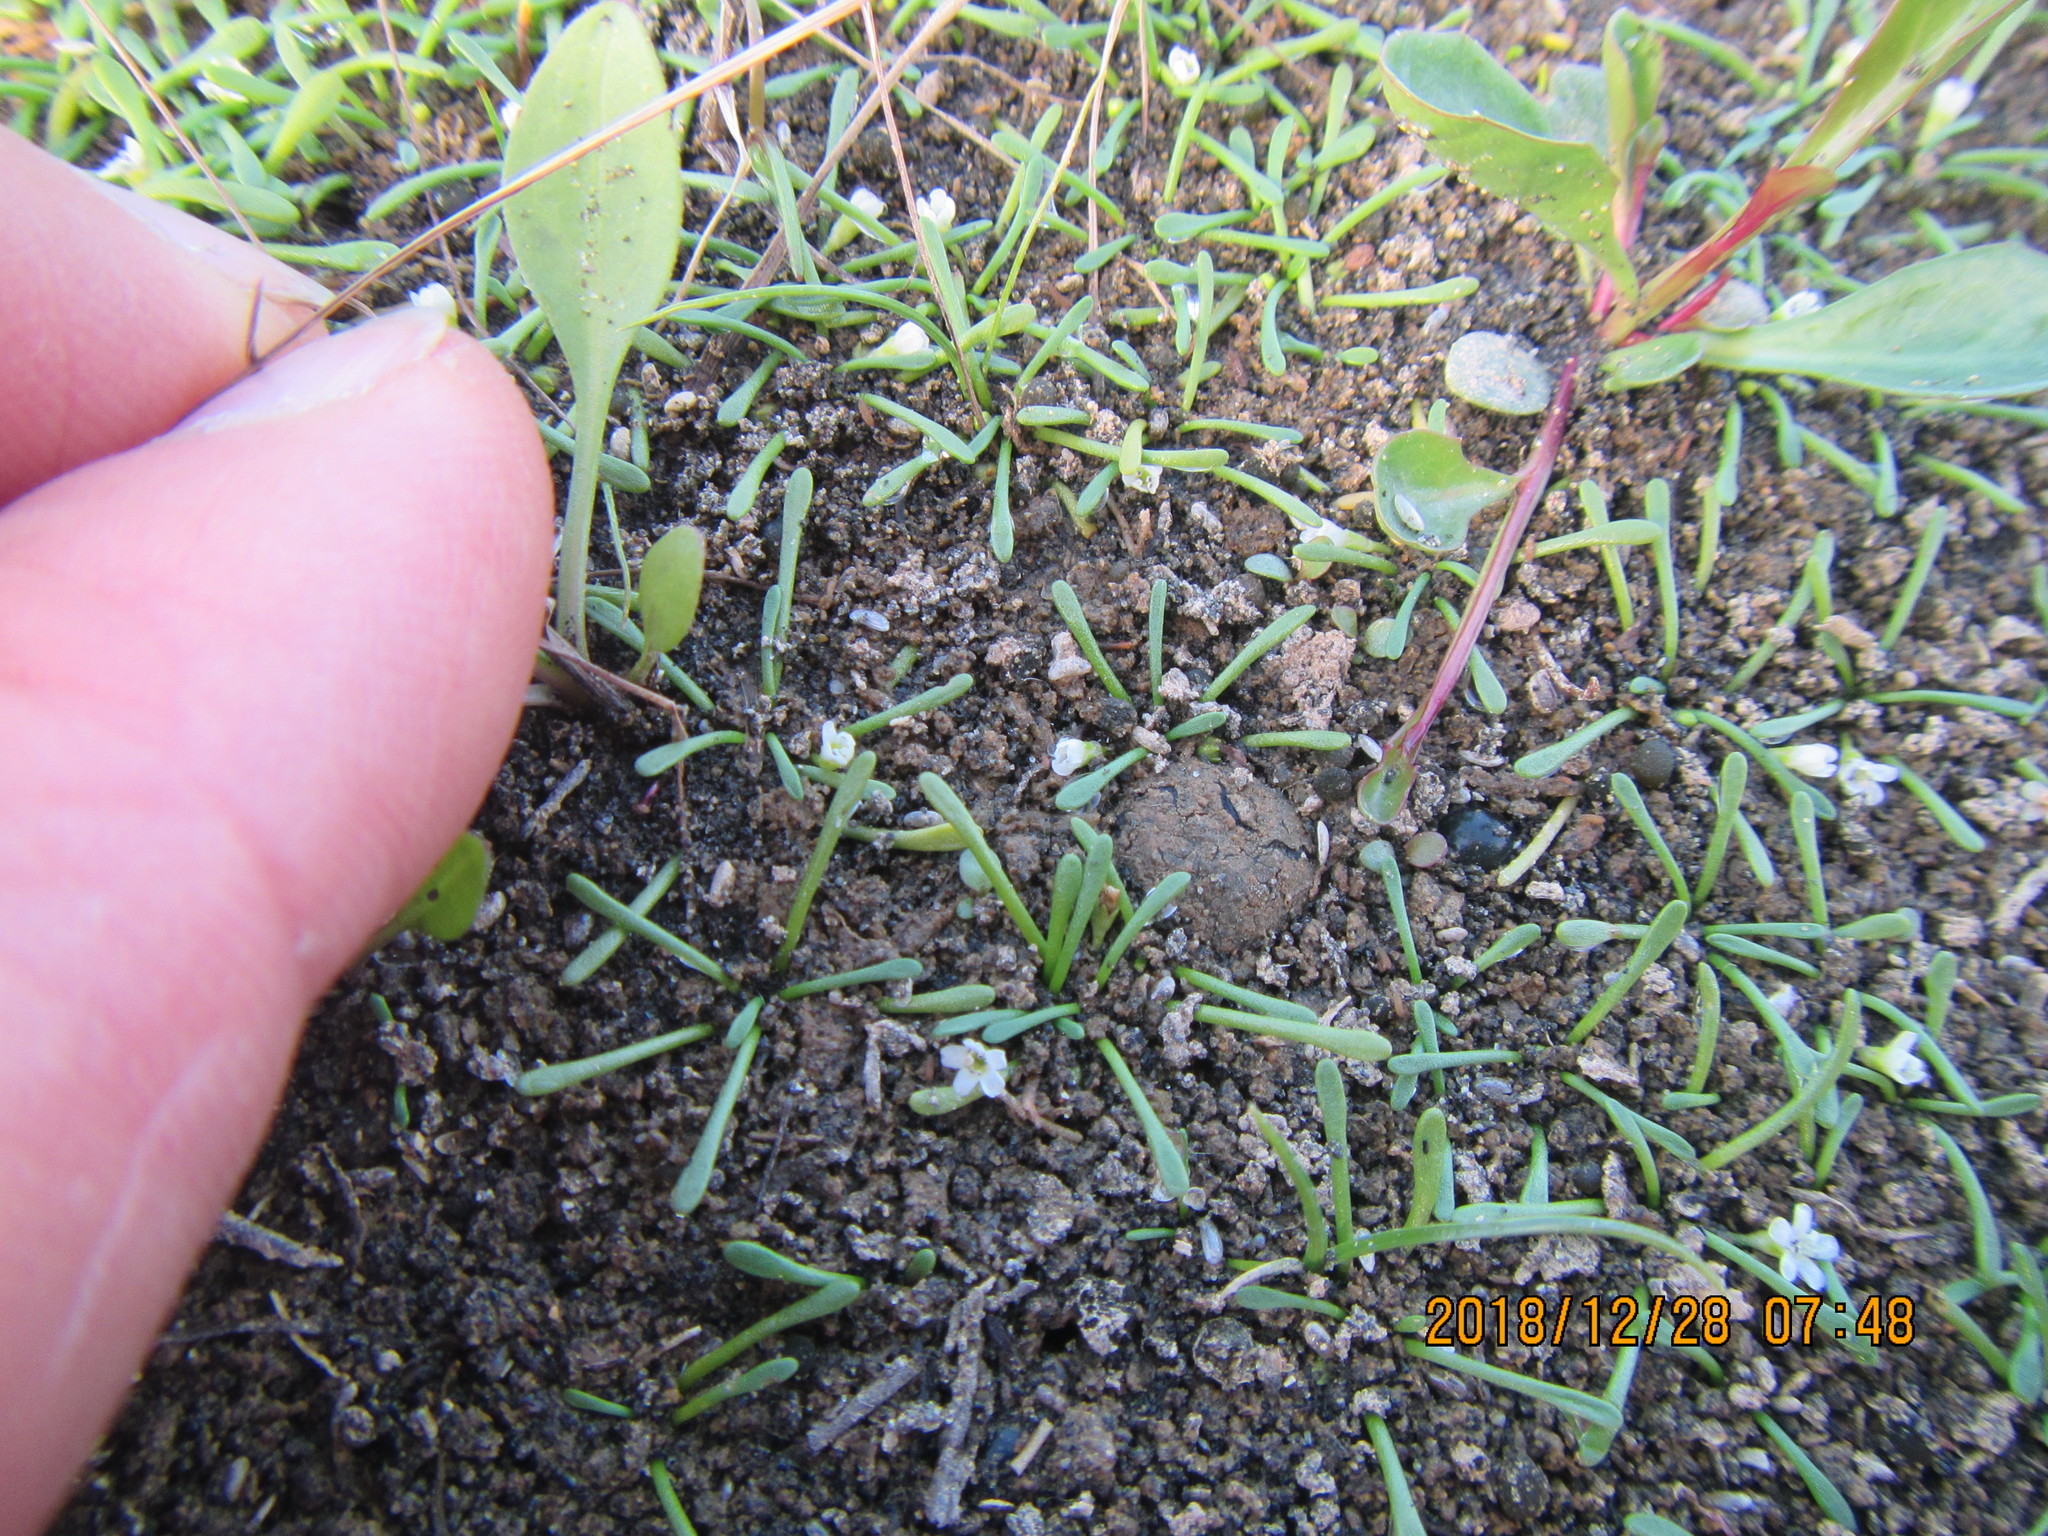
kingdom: Plantae
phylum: Tracheophyta
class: Magnoliopsida
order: Lamiales
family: Scrophulariaceae
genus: Limosella
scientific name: Limosella australis
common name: Welsh mudwort
